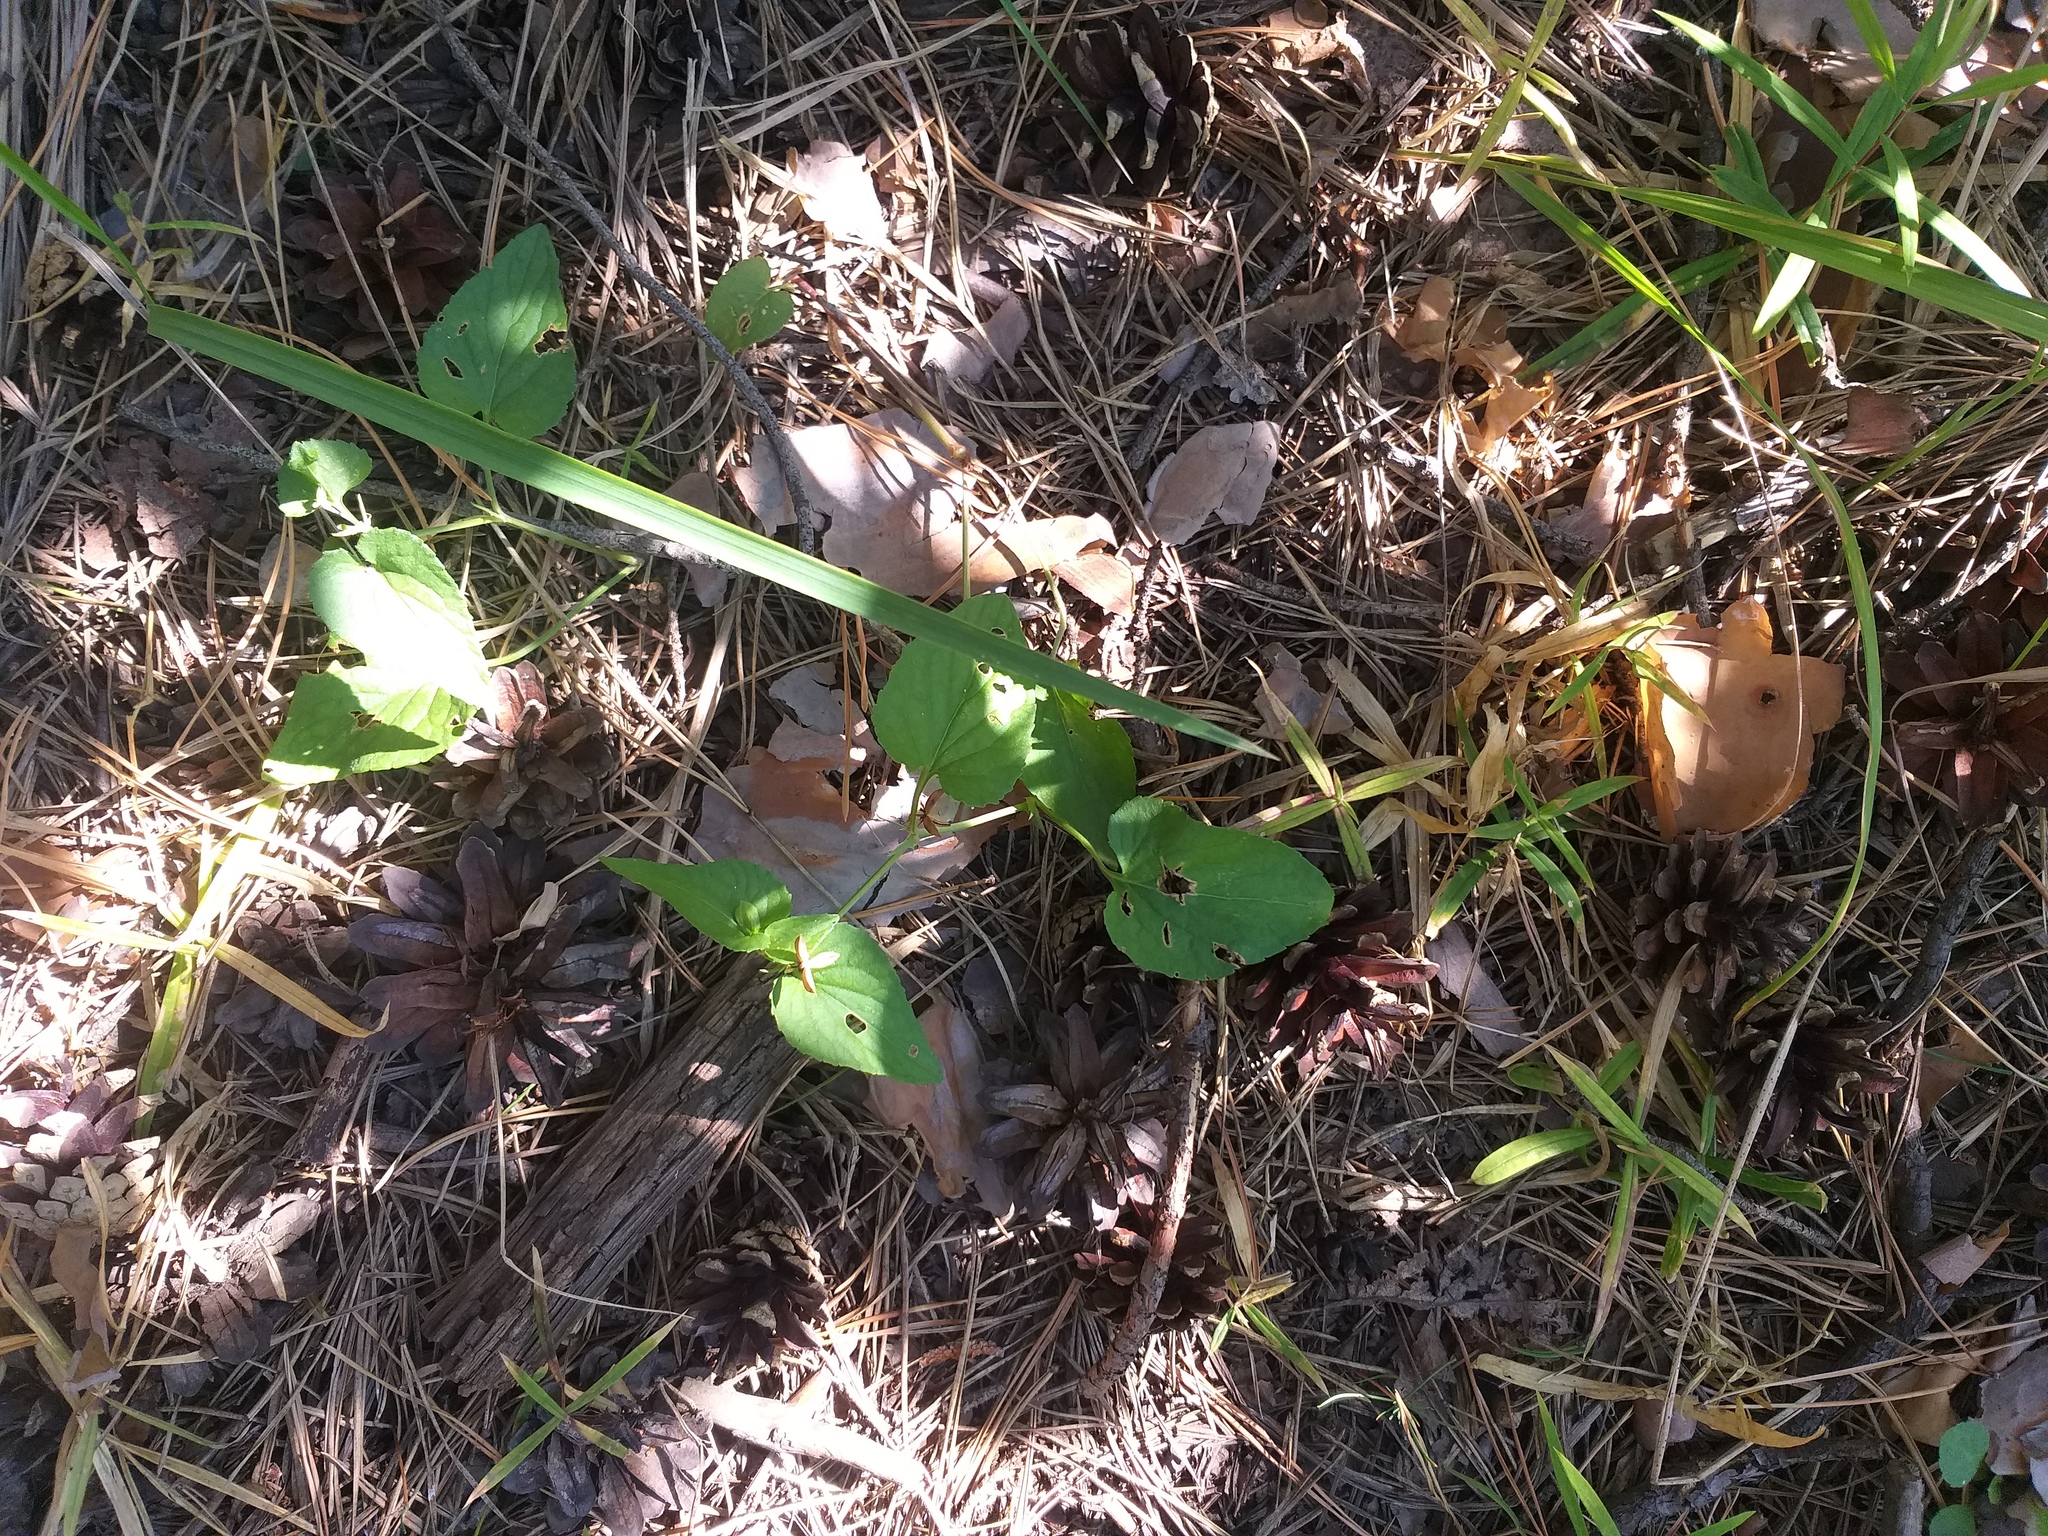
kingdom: Plantae
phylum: Tracheophyta
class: Magnoliopsida
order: Malpighiales
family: Violaceae
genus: Viola
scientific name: Viola
